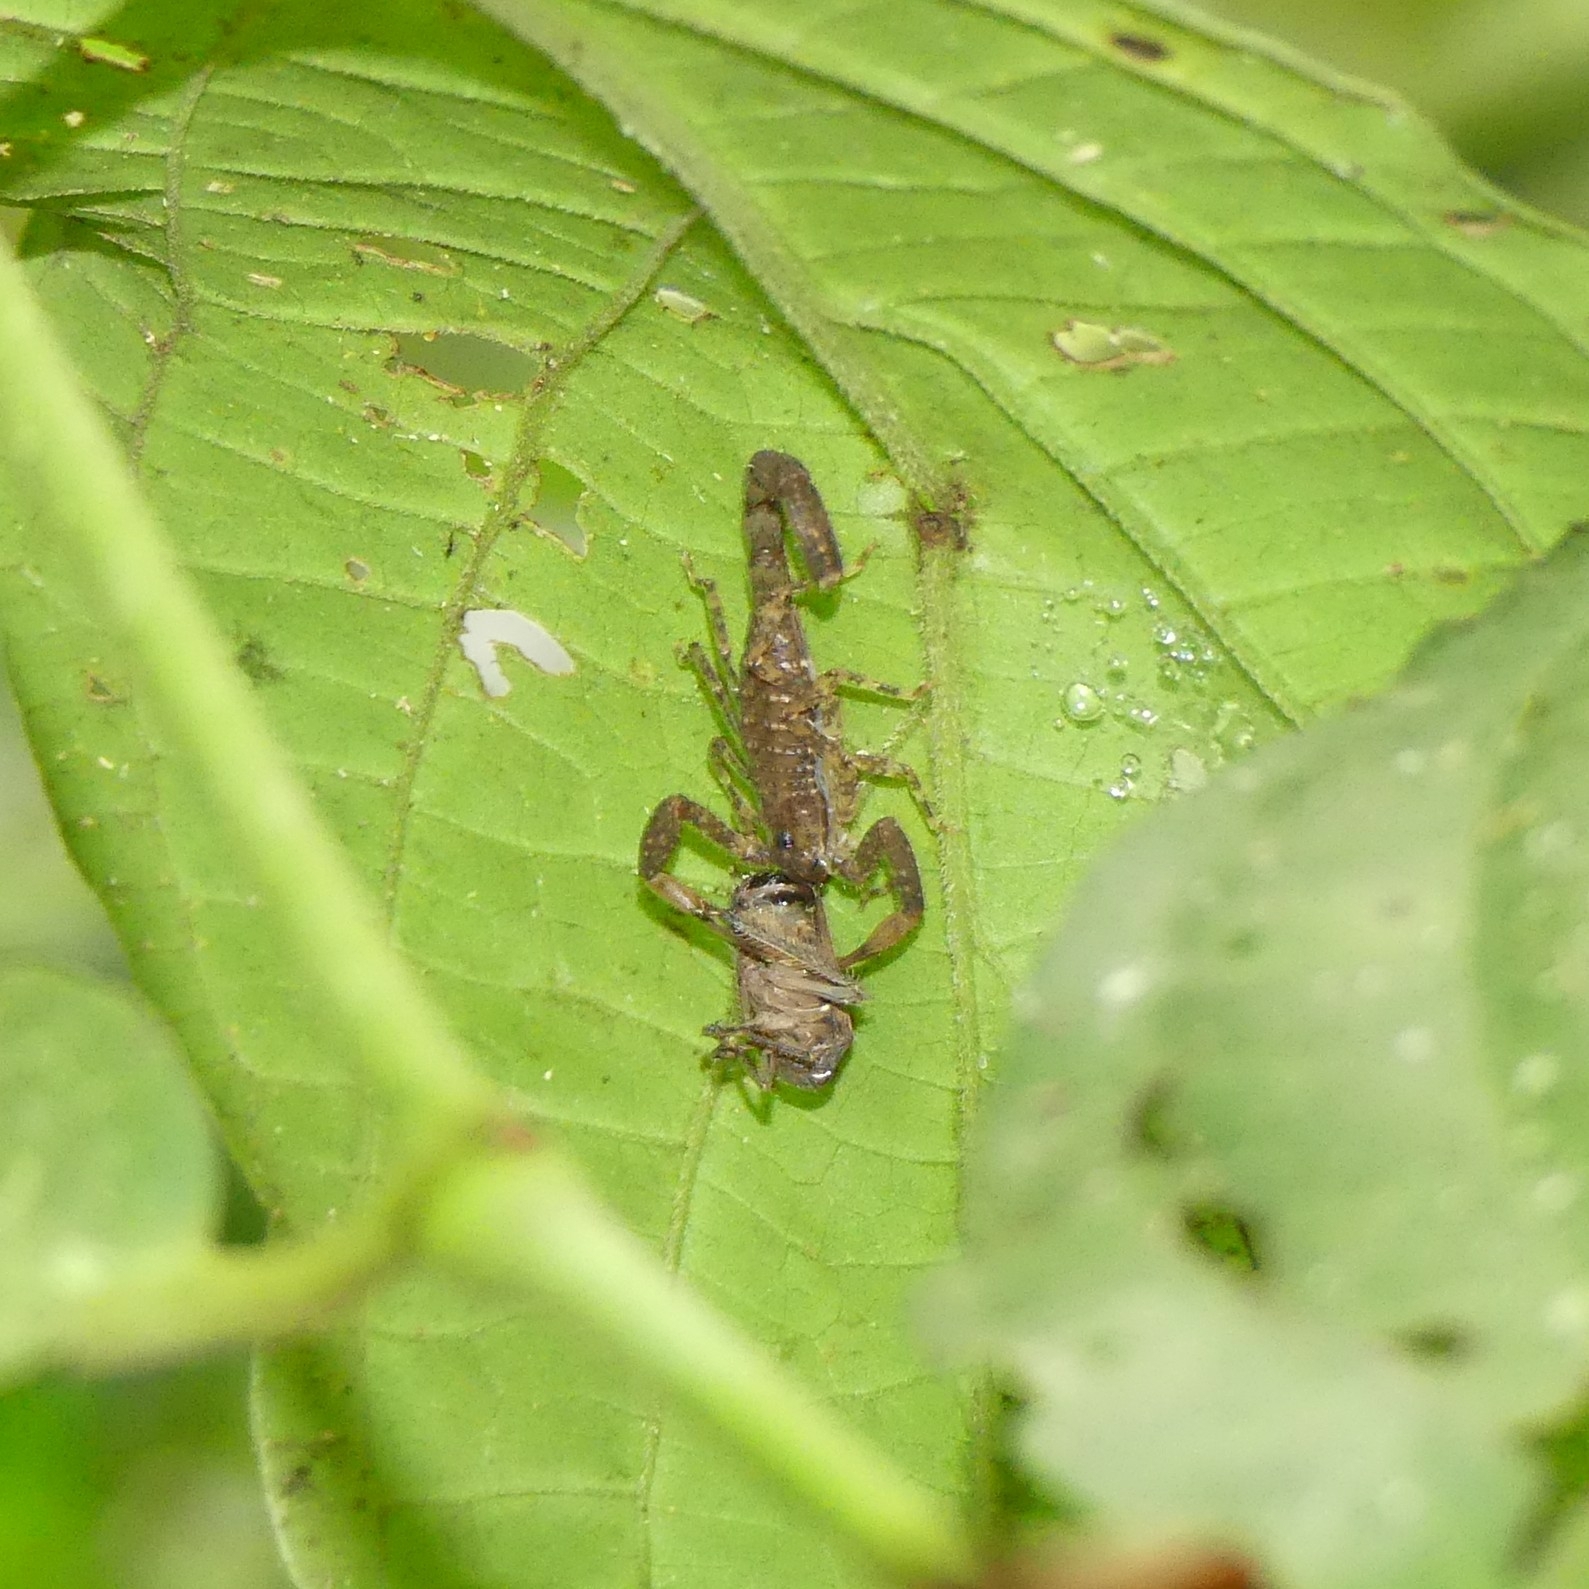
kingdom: Animalia
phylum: Arthropoda
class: Arachnida
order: Scorpiones
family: Buthidae
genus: Tityus
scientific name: Tityus silvestris
